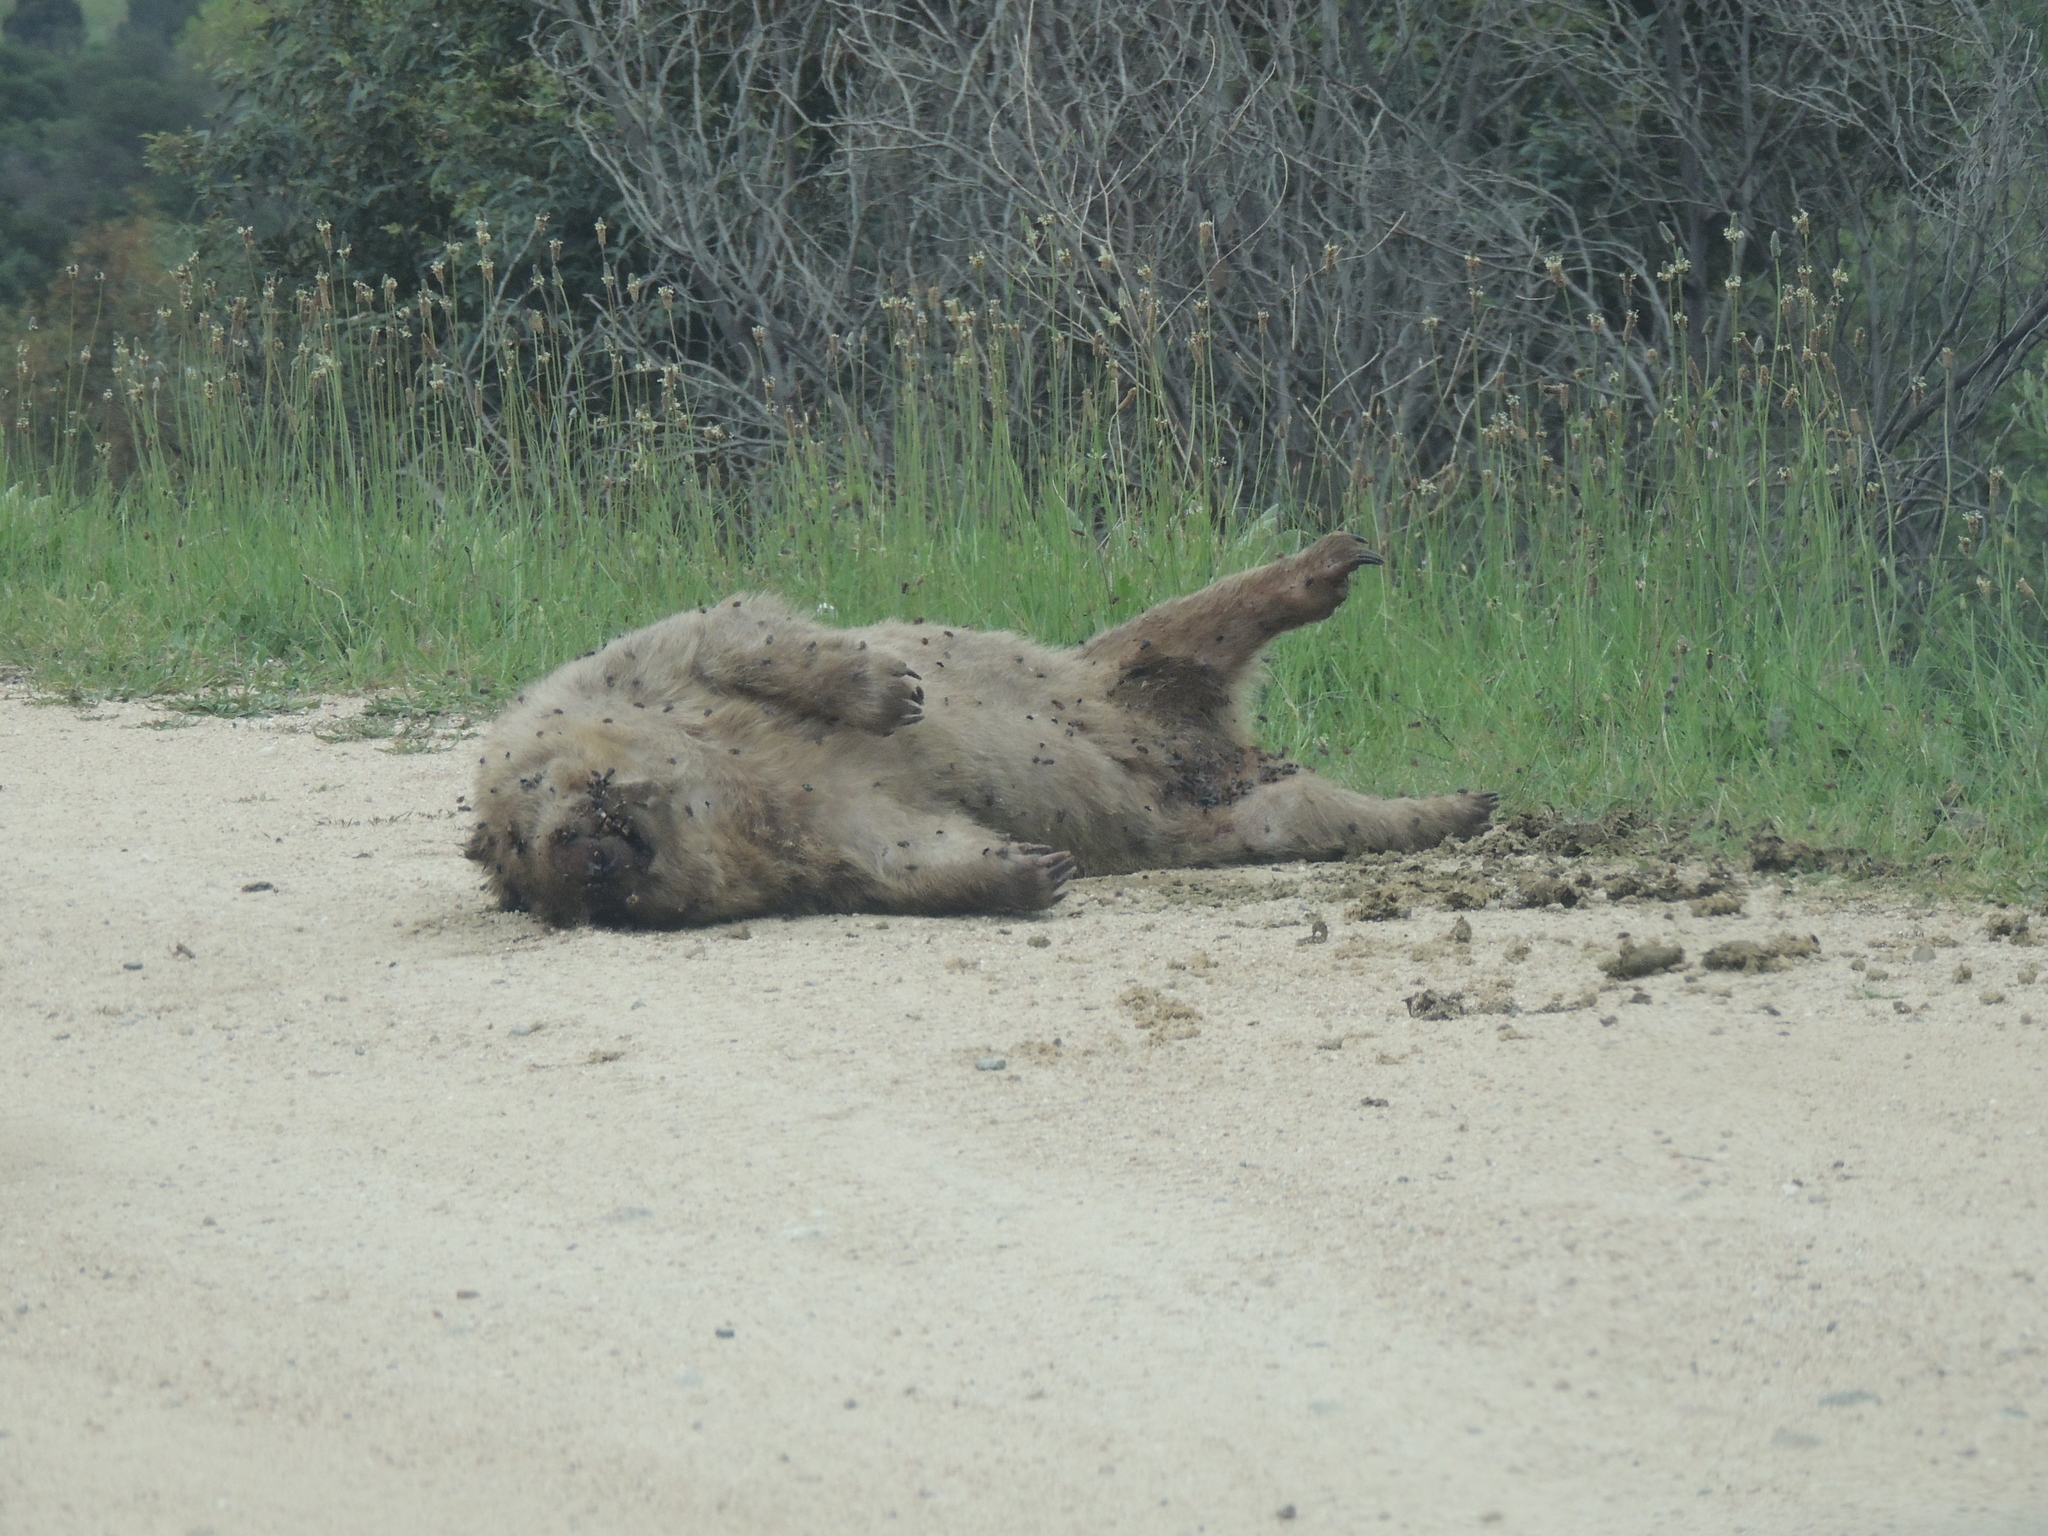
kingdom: Animalia
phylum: Chordata
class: Mammalia
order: Diprotodontia
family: Vombatidae
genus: Vombatus
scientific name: Vombatus ursinus
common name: Common wombat
